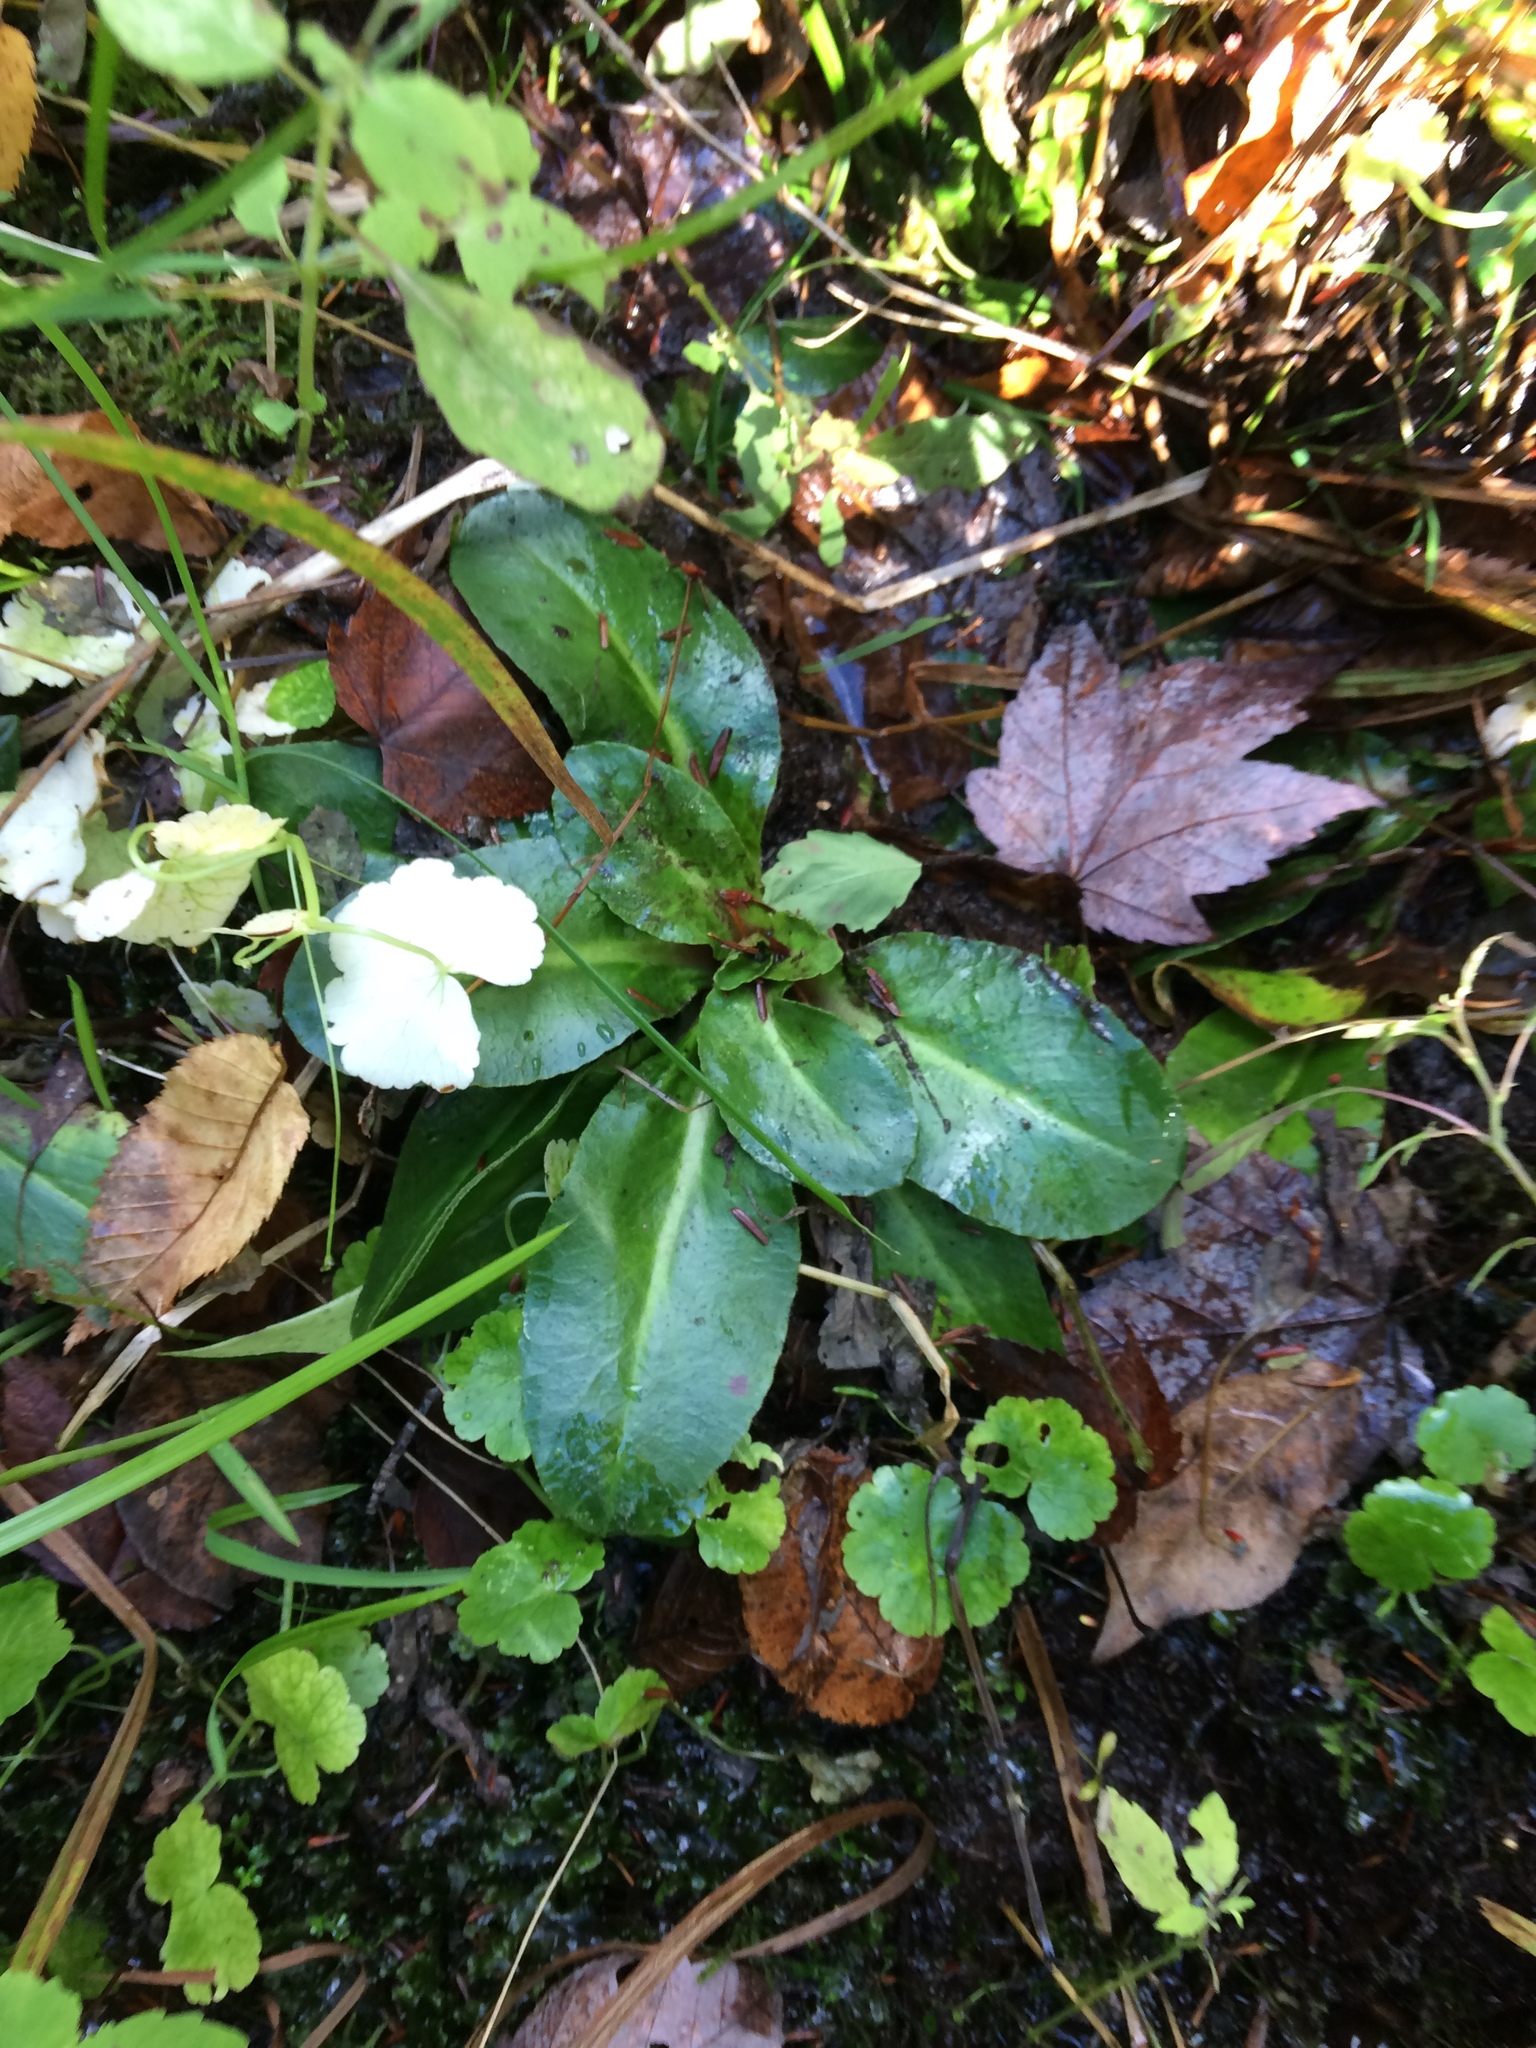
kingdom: Plantae
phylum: Tracheophyta
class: Magnoliopsida
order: Saxifragales
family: Saxifragaceae
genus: Micranthes
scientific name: Micranthes pensylvanica
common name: Marsh saxifrage
